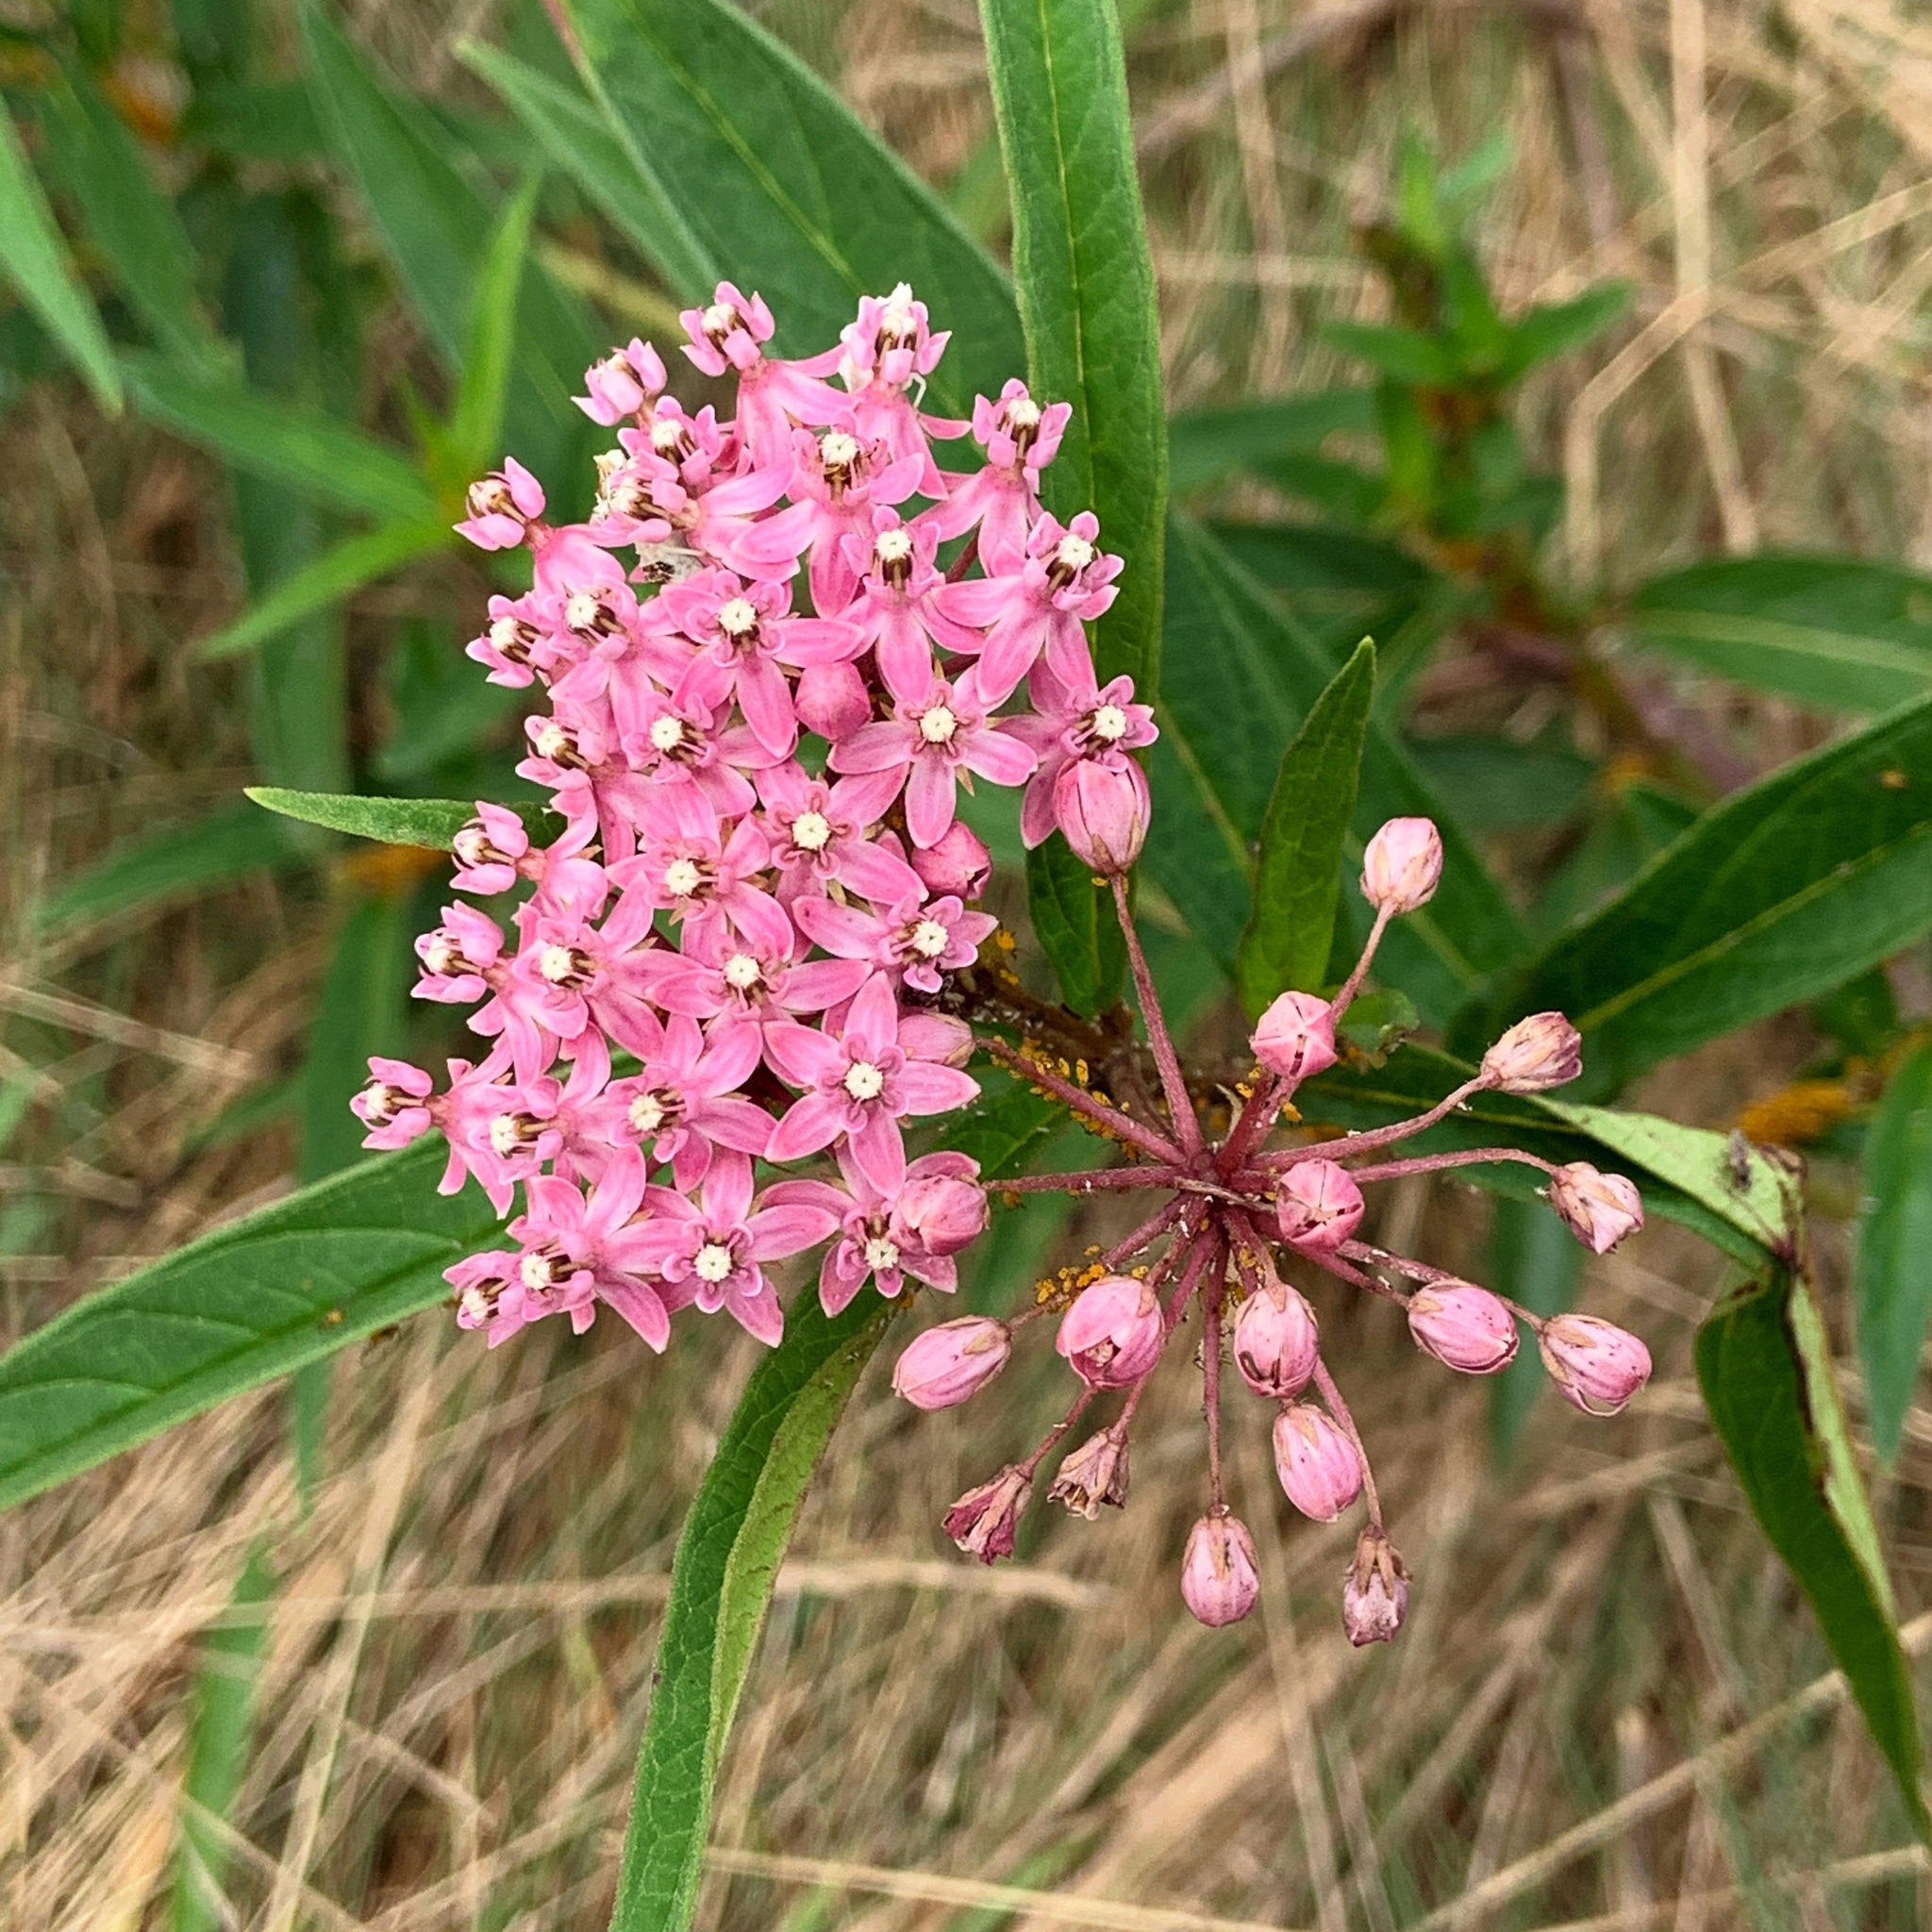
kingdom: Plantae
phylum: Tracheophyta
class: Magnoliopsida
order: Gentianales
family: Apocynaceae
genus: Asclepias
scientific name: Asclepias incarnata
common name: Swamp milkweed
